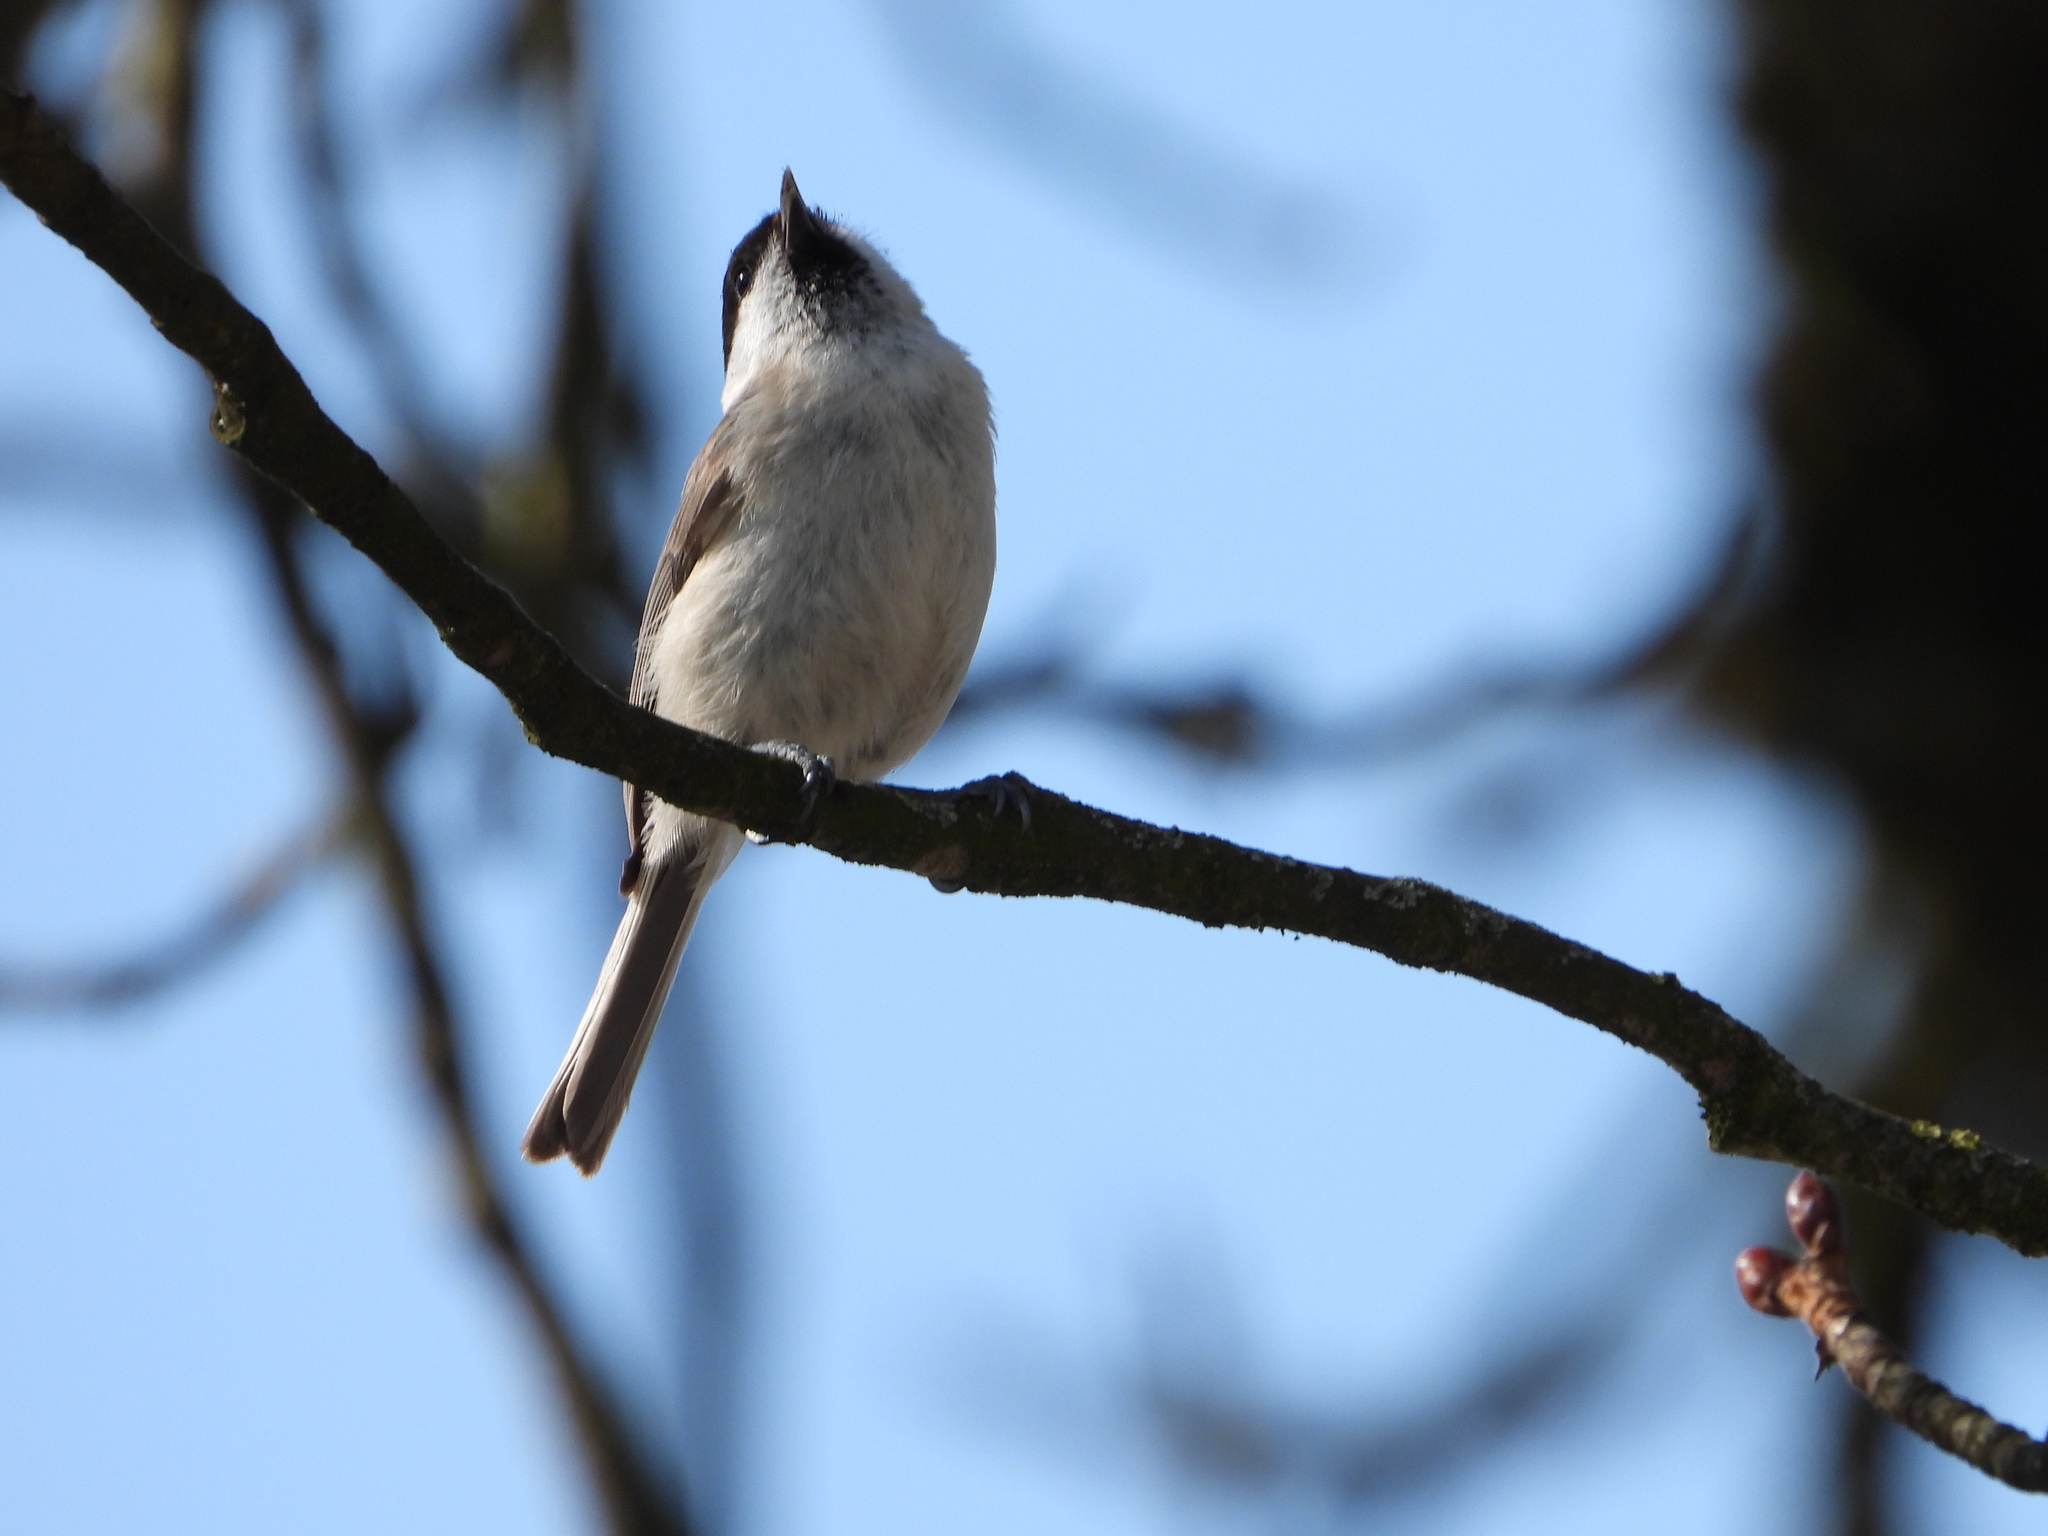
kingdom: Animalia
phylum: Chordata
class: Aves
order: Passeriformes
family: Paridae
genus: Poecile
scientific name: Poecile palustris
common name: Marsh tit
